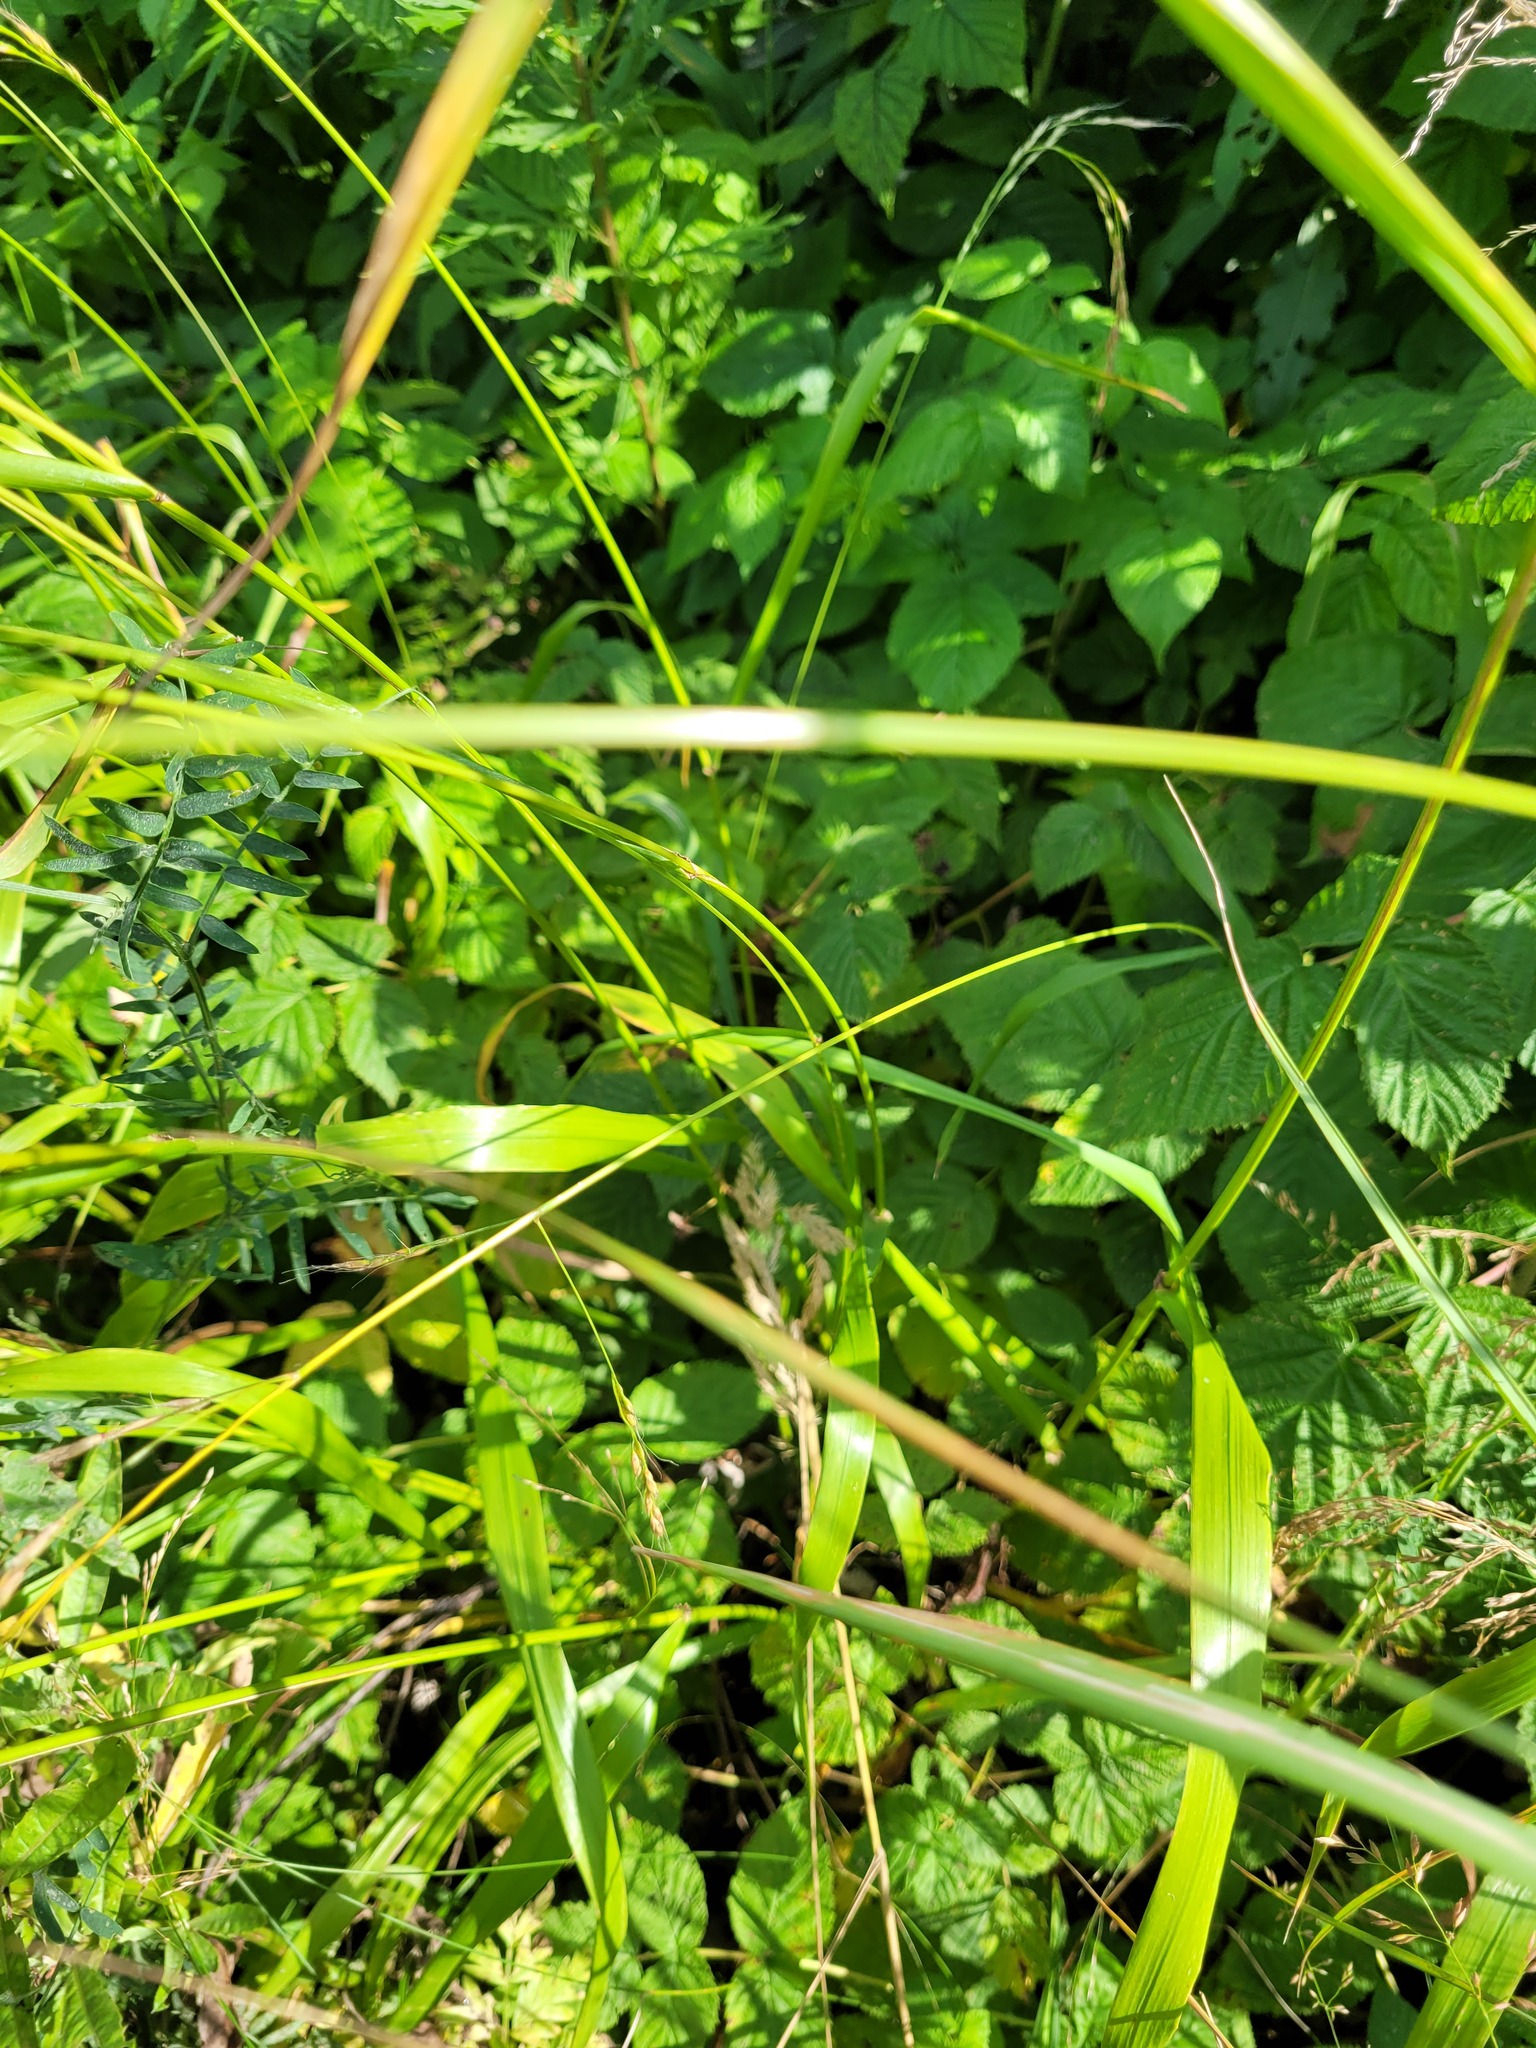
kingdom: Plantae
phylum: Tracheophyta
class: Liliopsida
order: Poales
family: Poaceae
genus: Lolium
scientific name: Lolium giganteum
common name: Giant fescue
